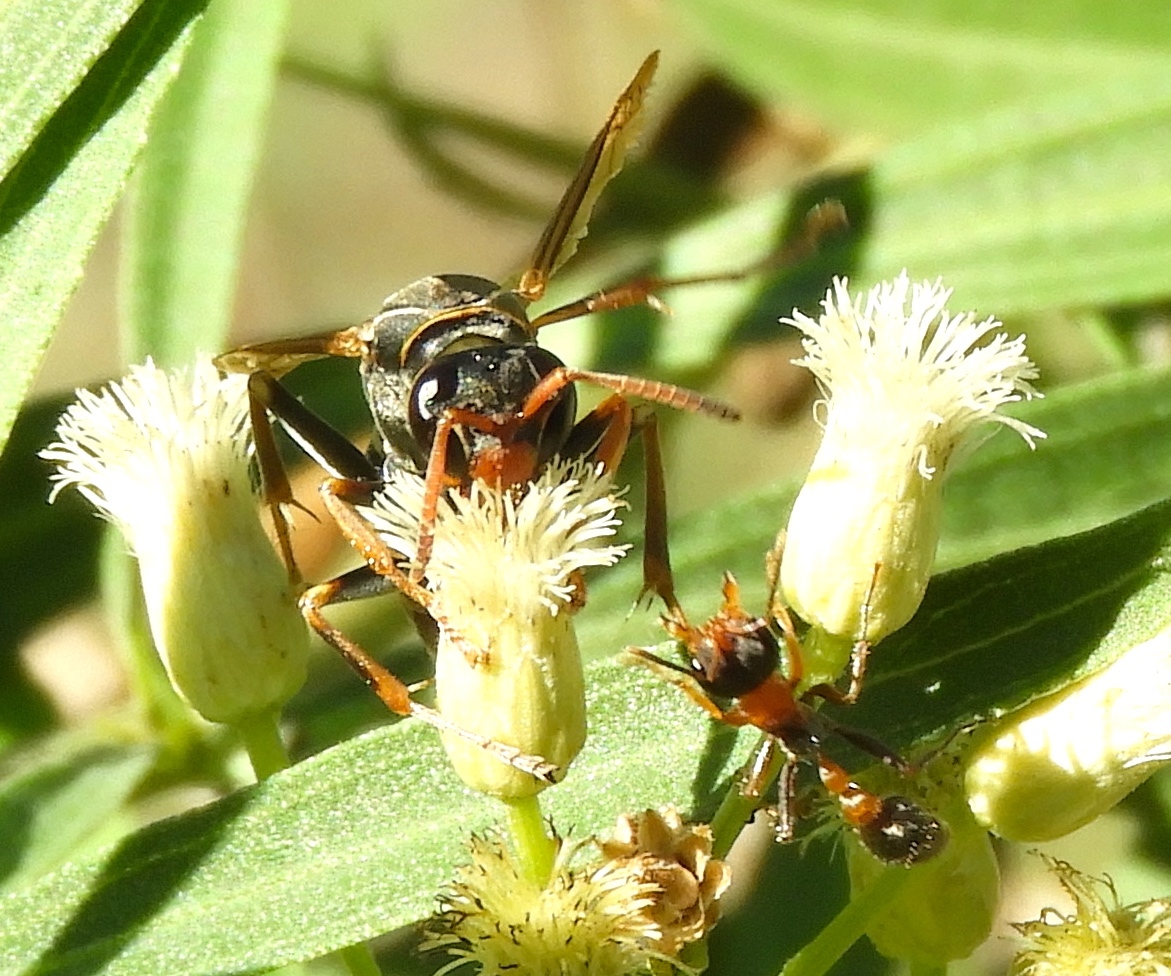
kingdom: Animalia
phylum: Arthropoda
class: Insecta
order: Hymenoptera
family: Eumenidae
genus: Polistes
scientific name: Polistes pacificus
